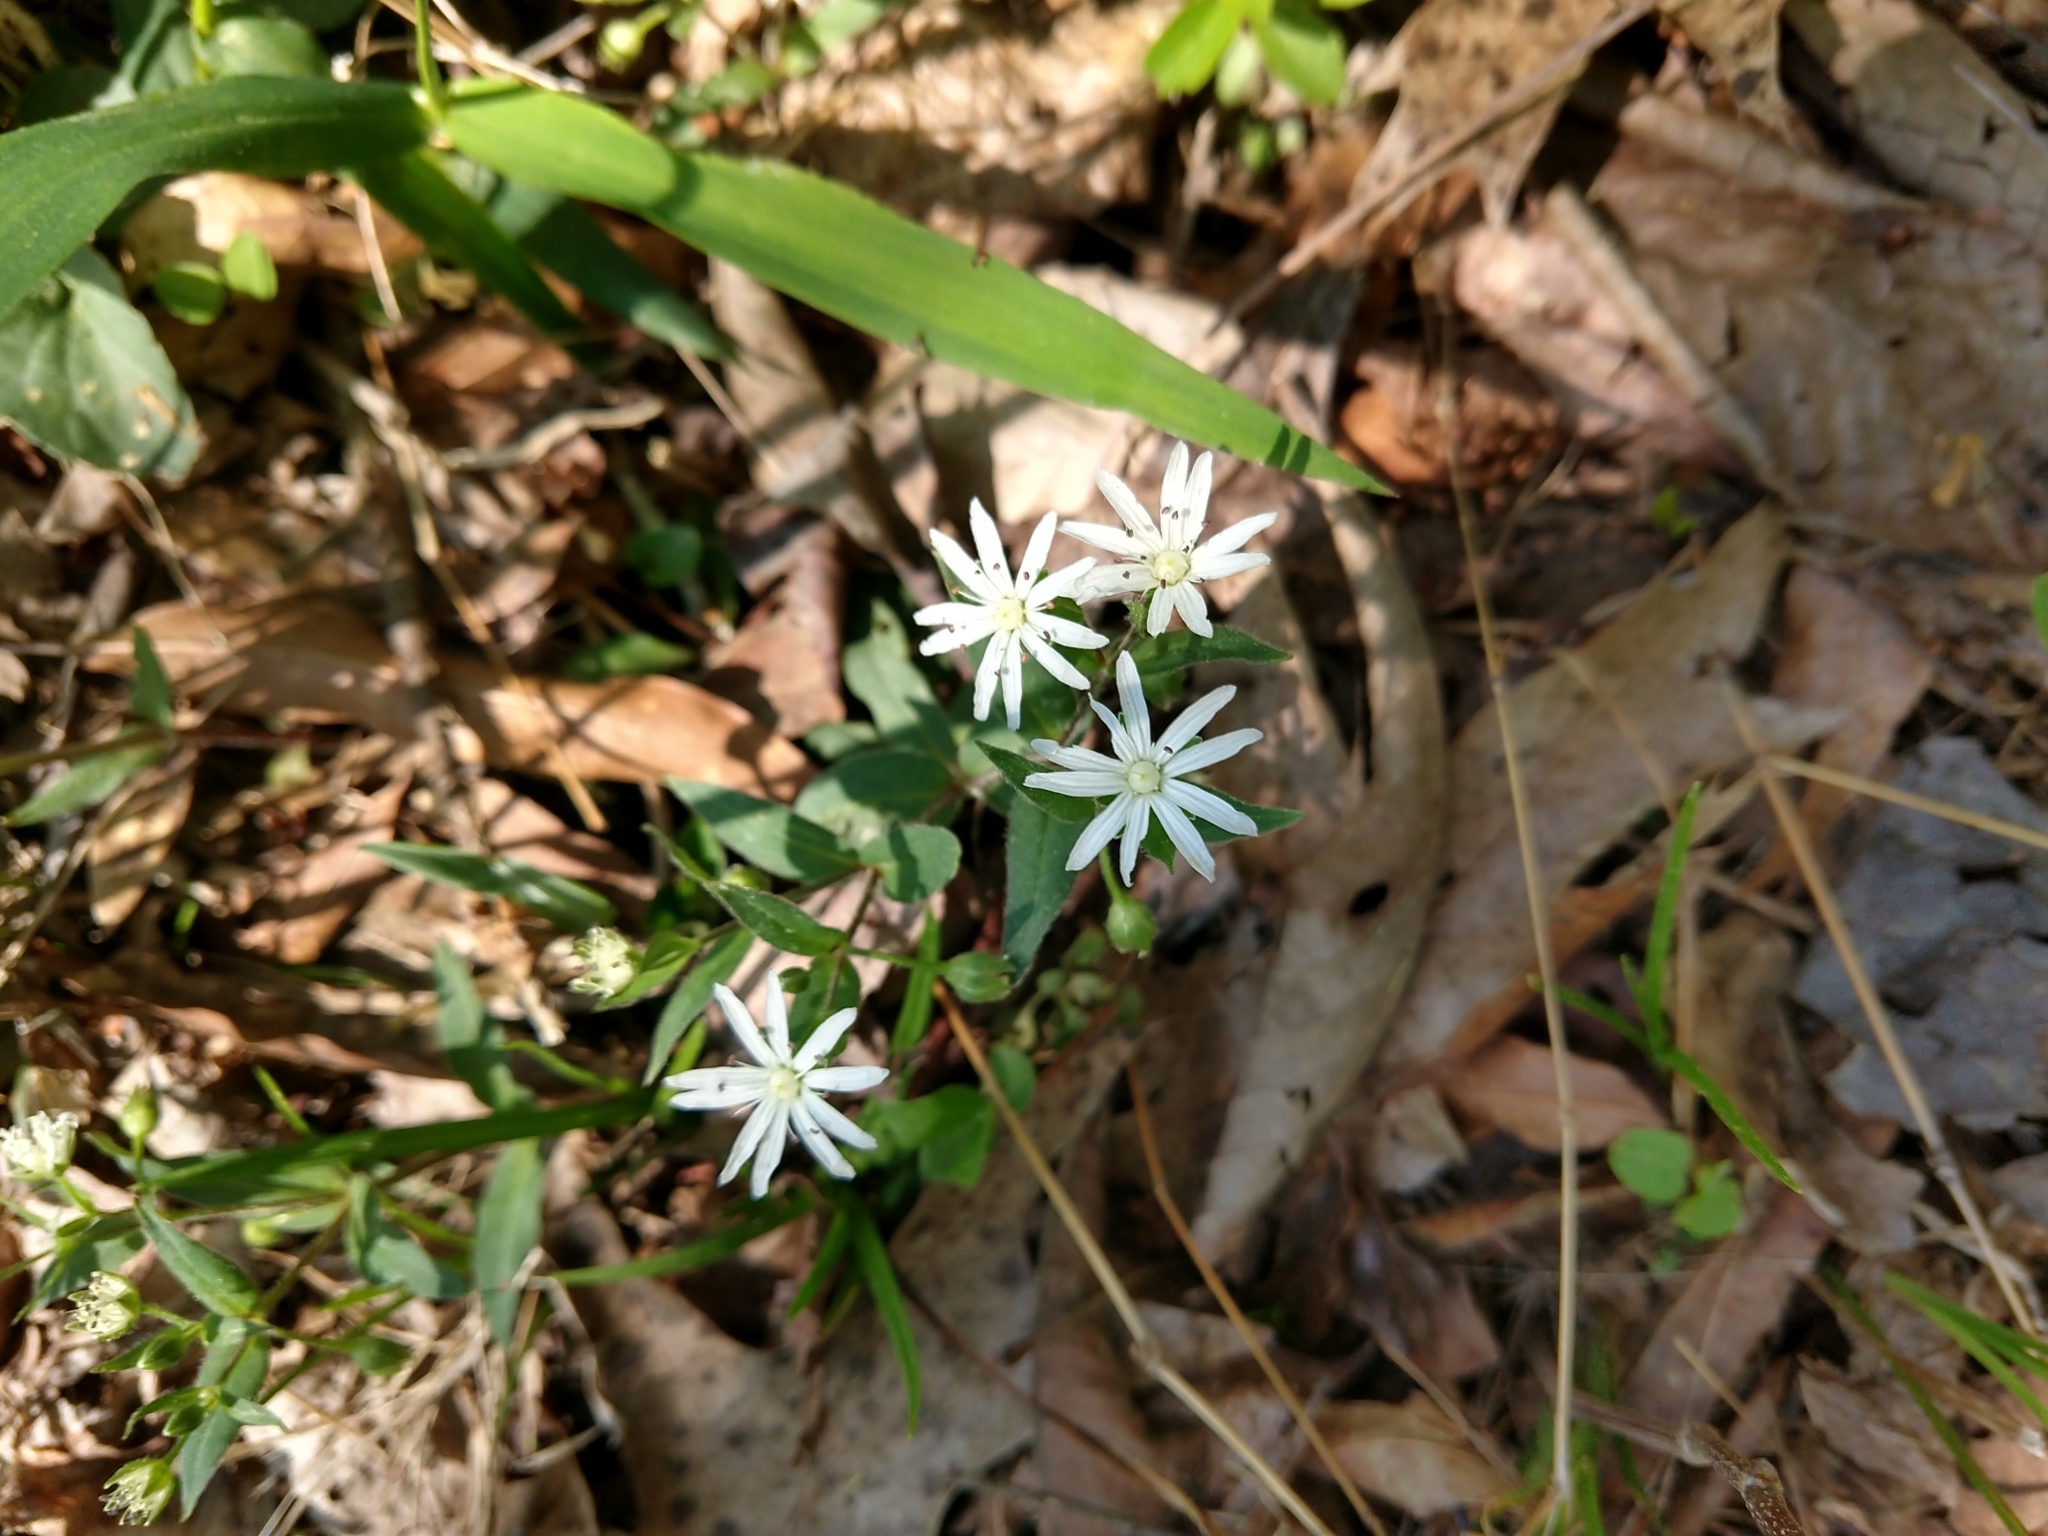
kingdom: Plantae
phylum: Tracheophyta
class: Magnoliopsida
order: Caryophyllales
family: Caryophyllaceae
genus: Stellaria
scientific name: Stellaria pubera
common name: Star chickweed
